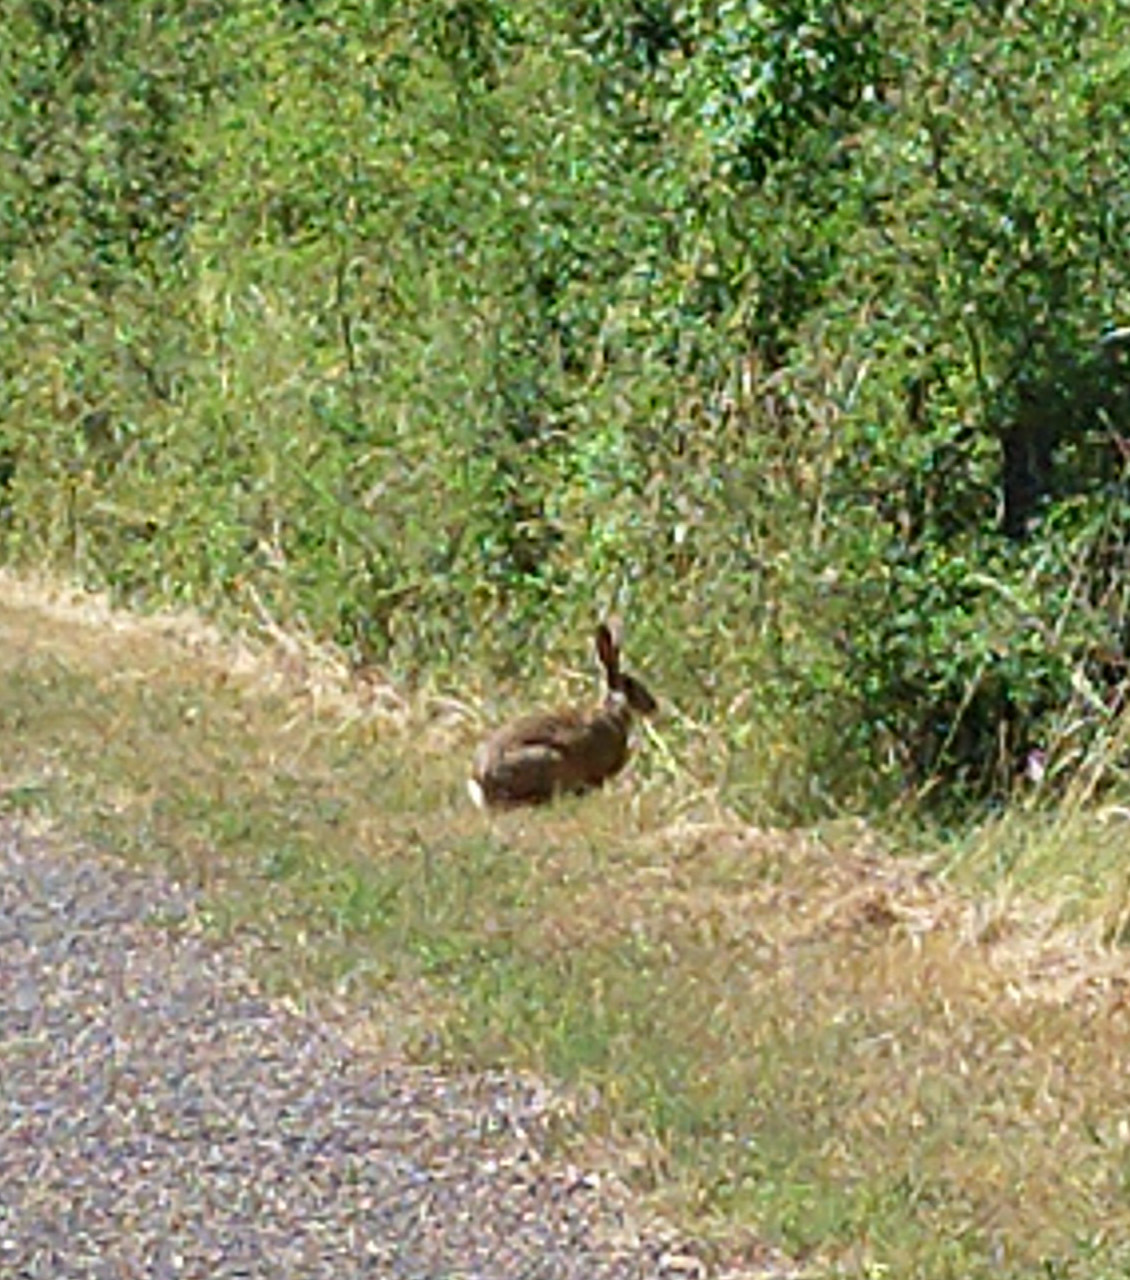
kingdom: Animalia
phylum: Chordata
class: Mammalia
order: Lagomorpha
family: Leporidae
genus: Lepus
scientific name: Lepus europaeus
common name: European hare
